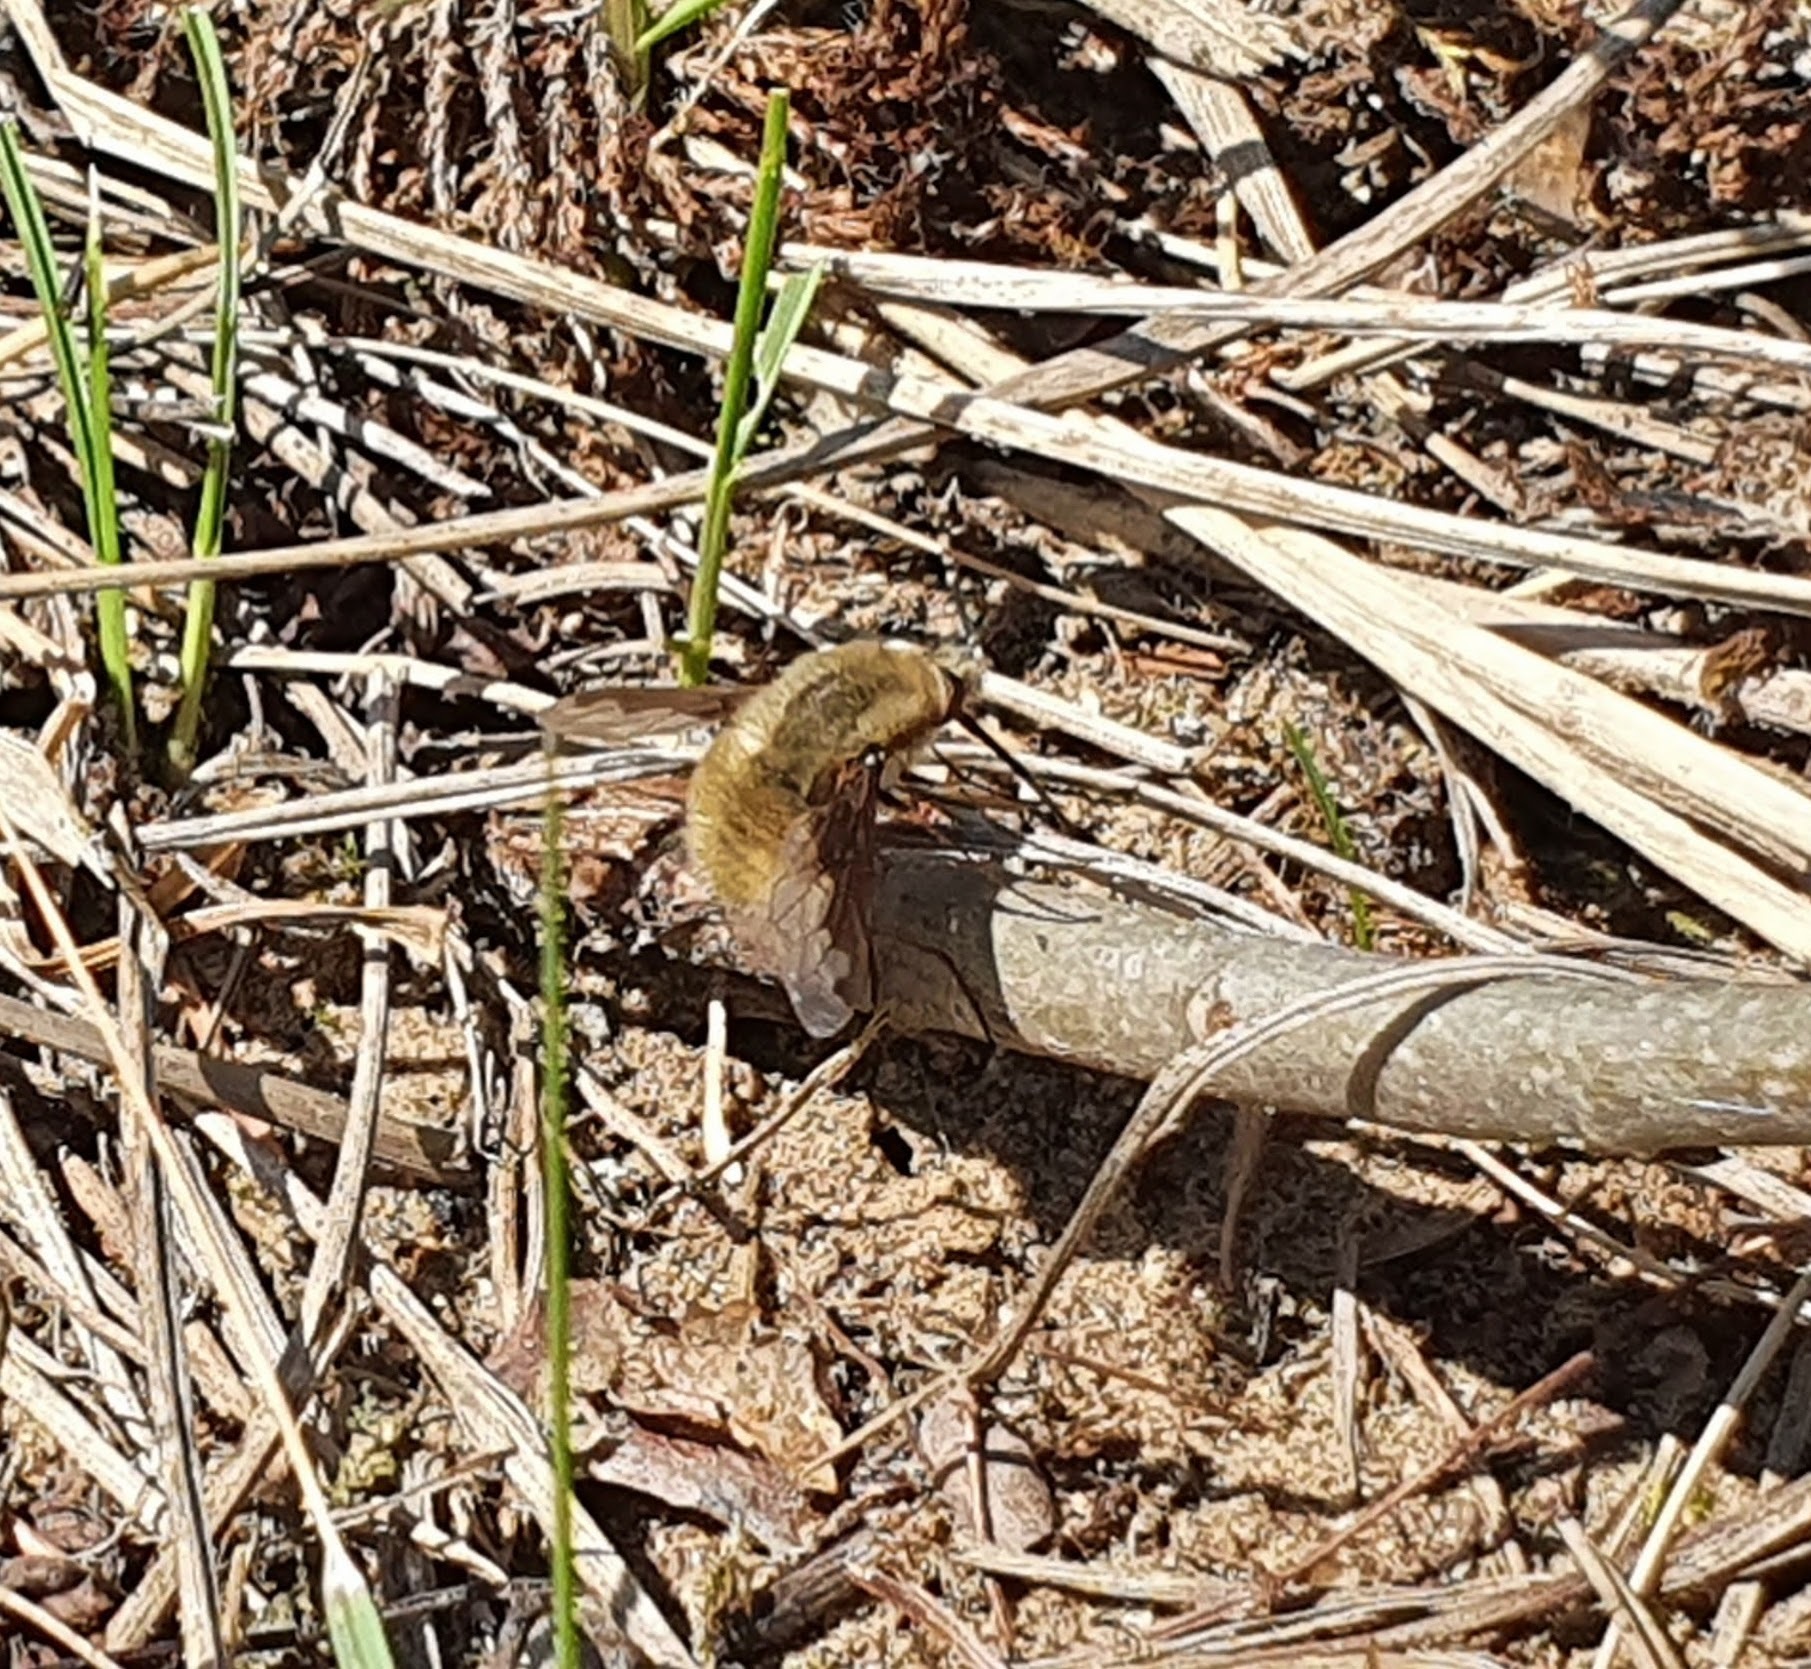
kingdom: Animalia
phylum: Arthropoda
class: Insecta
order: Diptera
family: Bombyliidae
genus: Bombylius
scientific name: Bombylius major
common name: Bee fly
